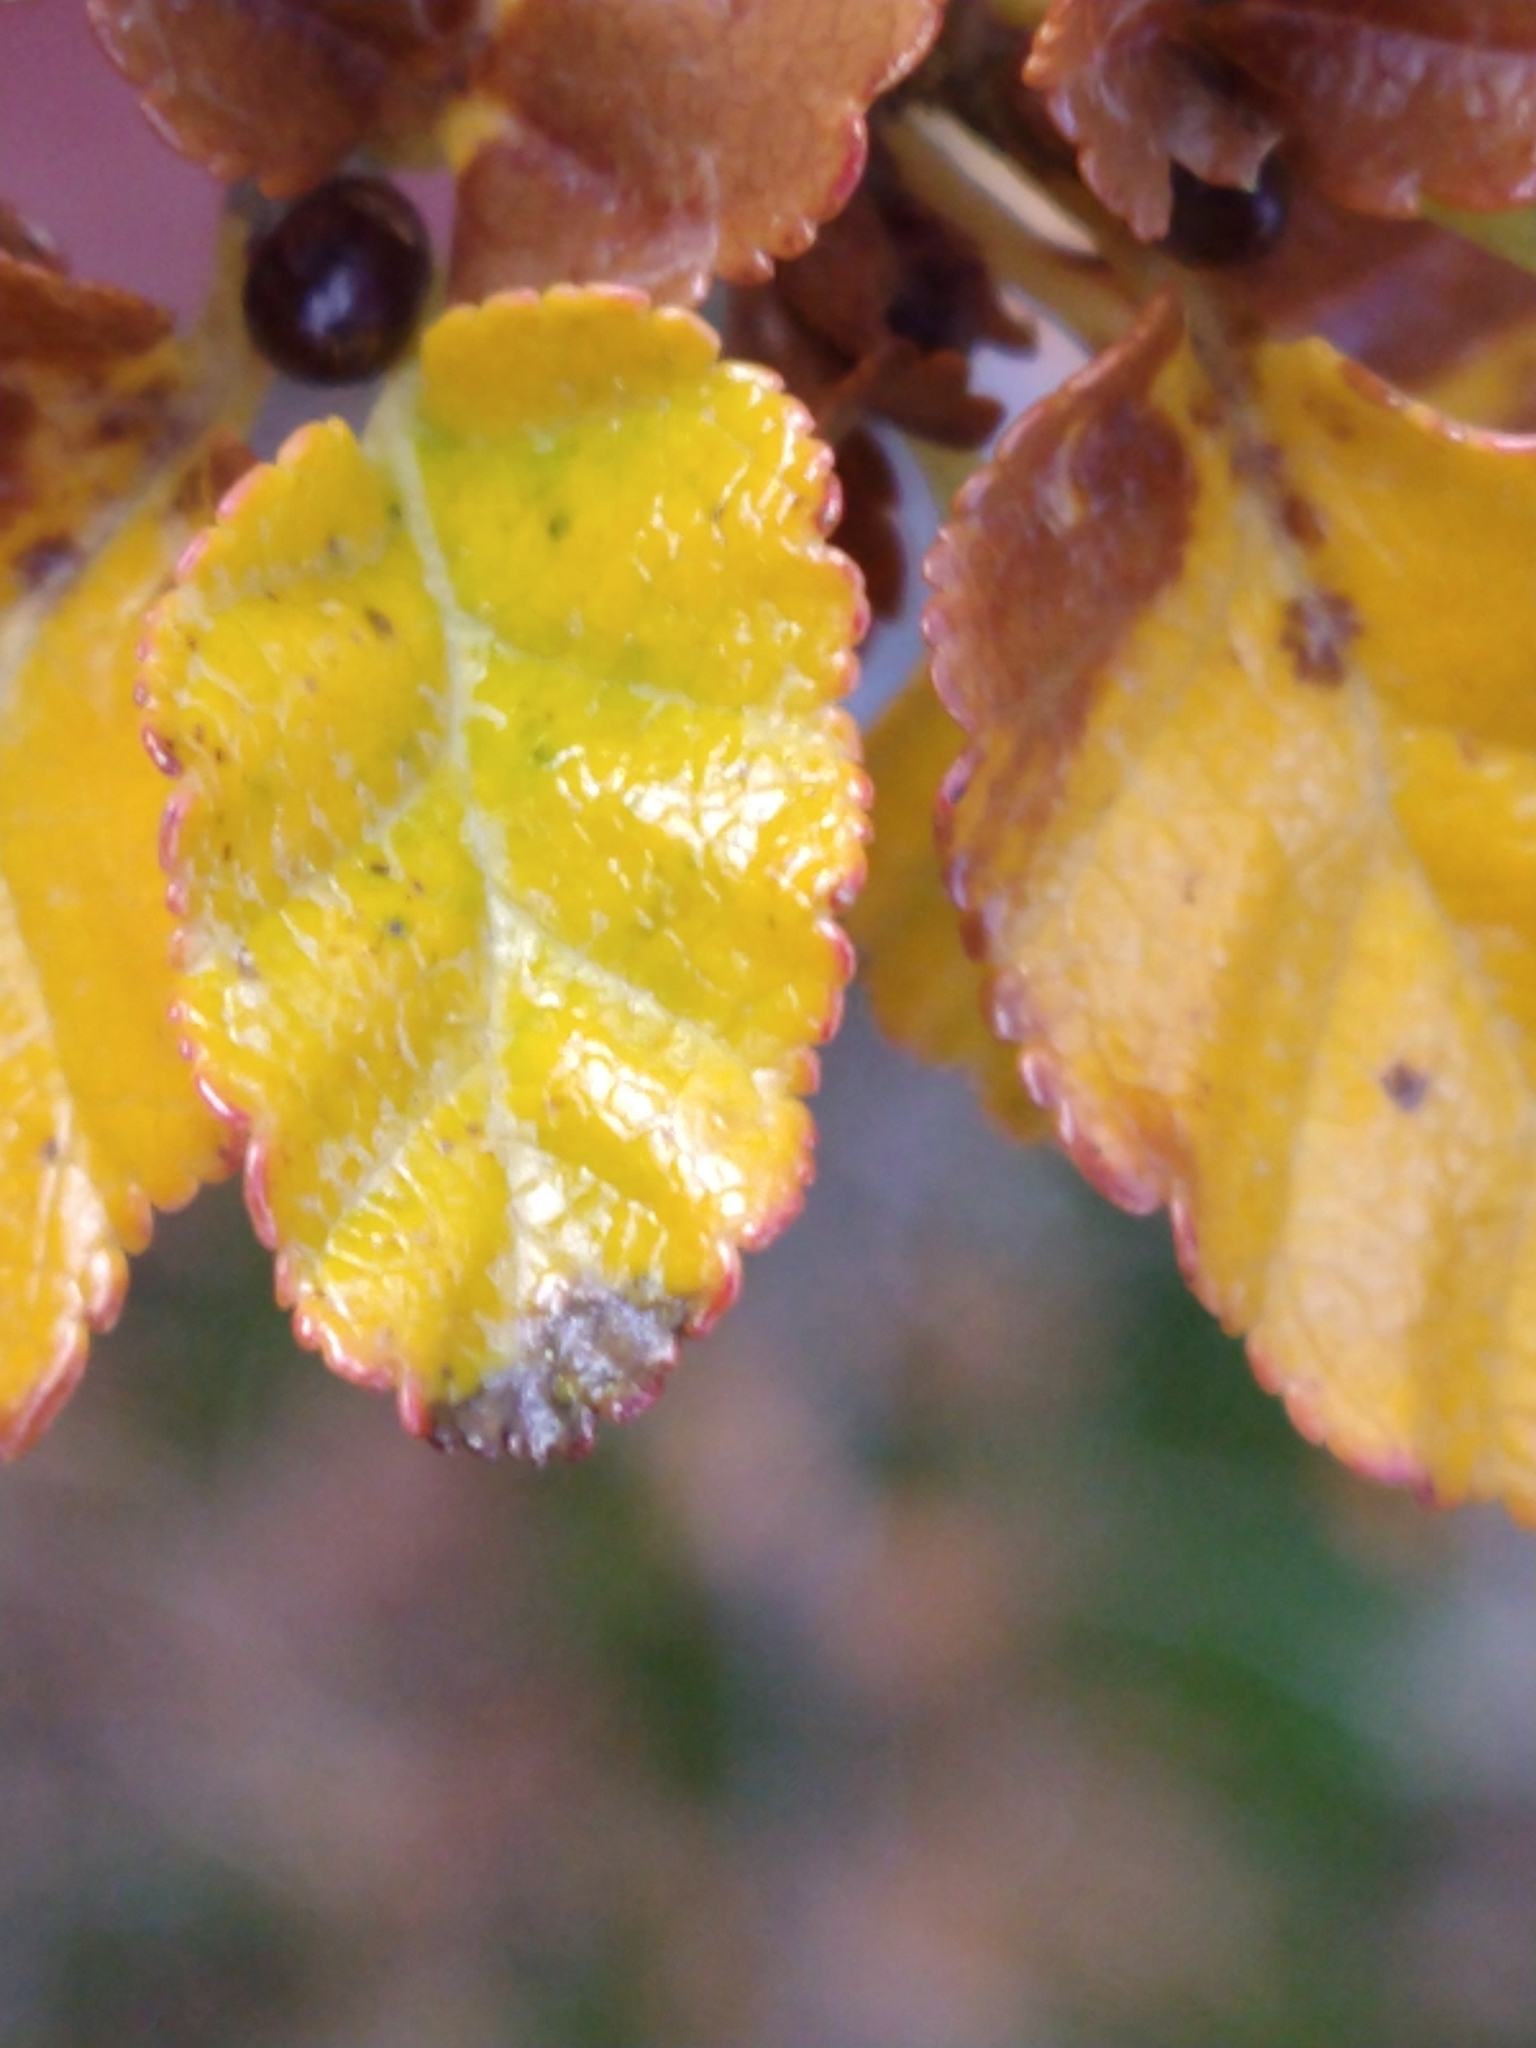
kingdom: Plantae
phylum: Tracheophyta
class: Magnoliopsida
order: Fagales
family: Nothofagaceae
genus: Nothofagus
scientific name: Nothofagus antarctica
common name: Antarctic beech
